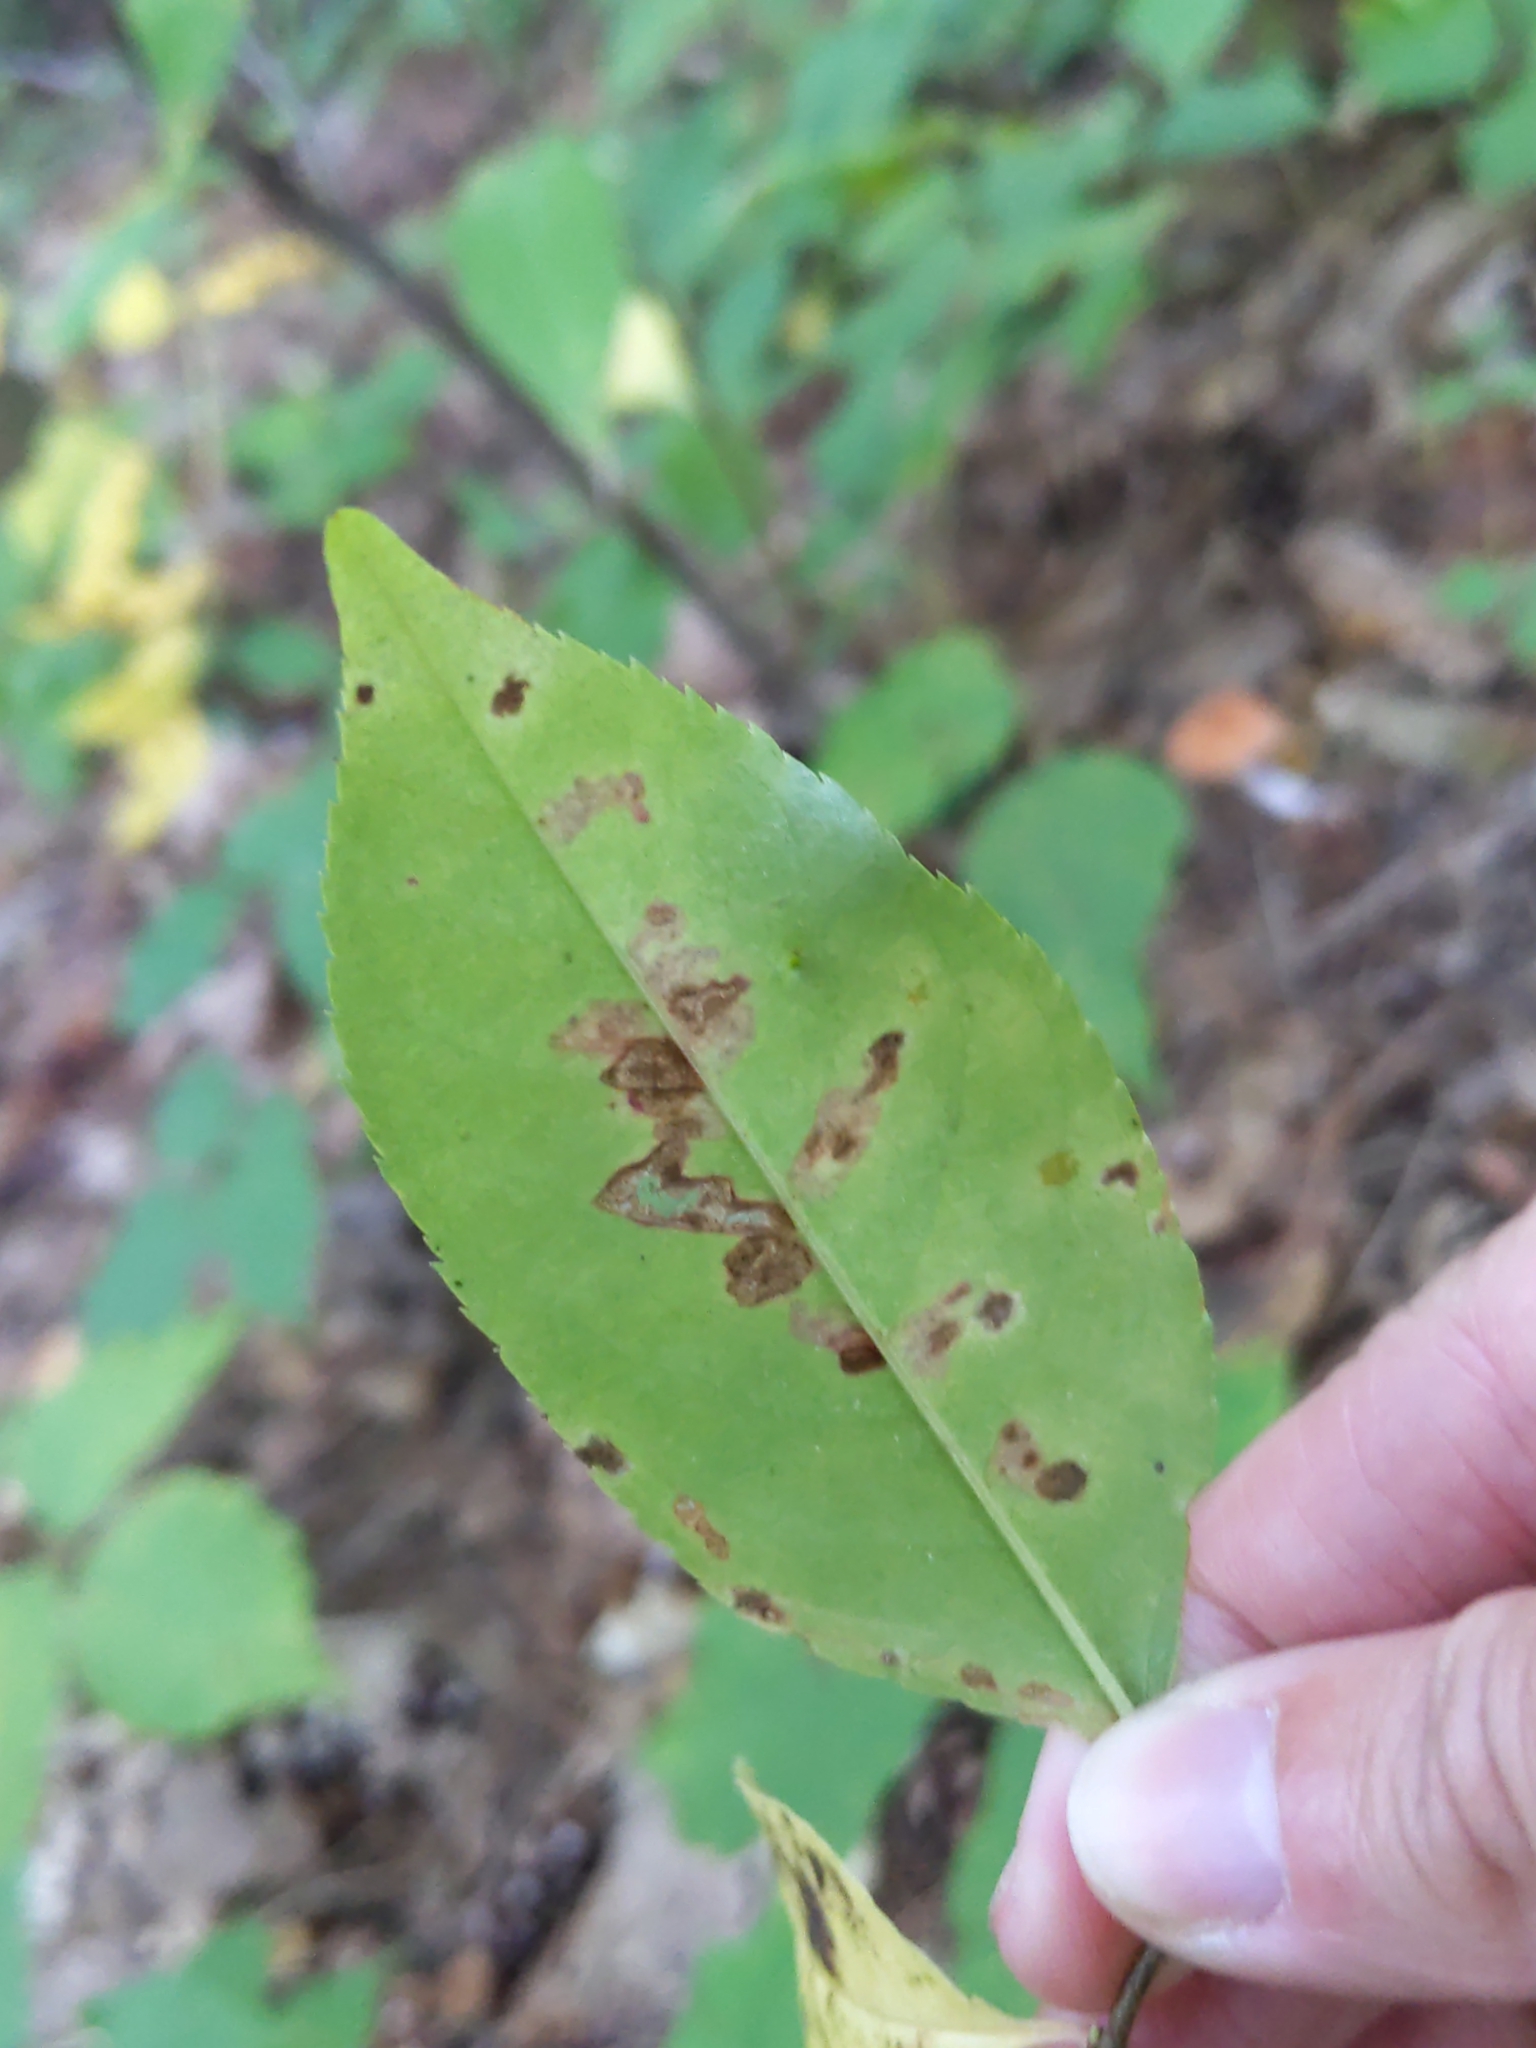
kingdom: Animalia
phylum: Arthropoda
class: Insecta
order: Lepidoptera
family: Nepticulidae
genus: Stigmella
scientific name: Stigmella prunifoliella
